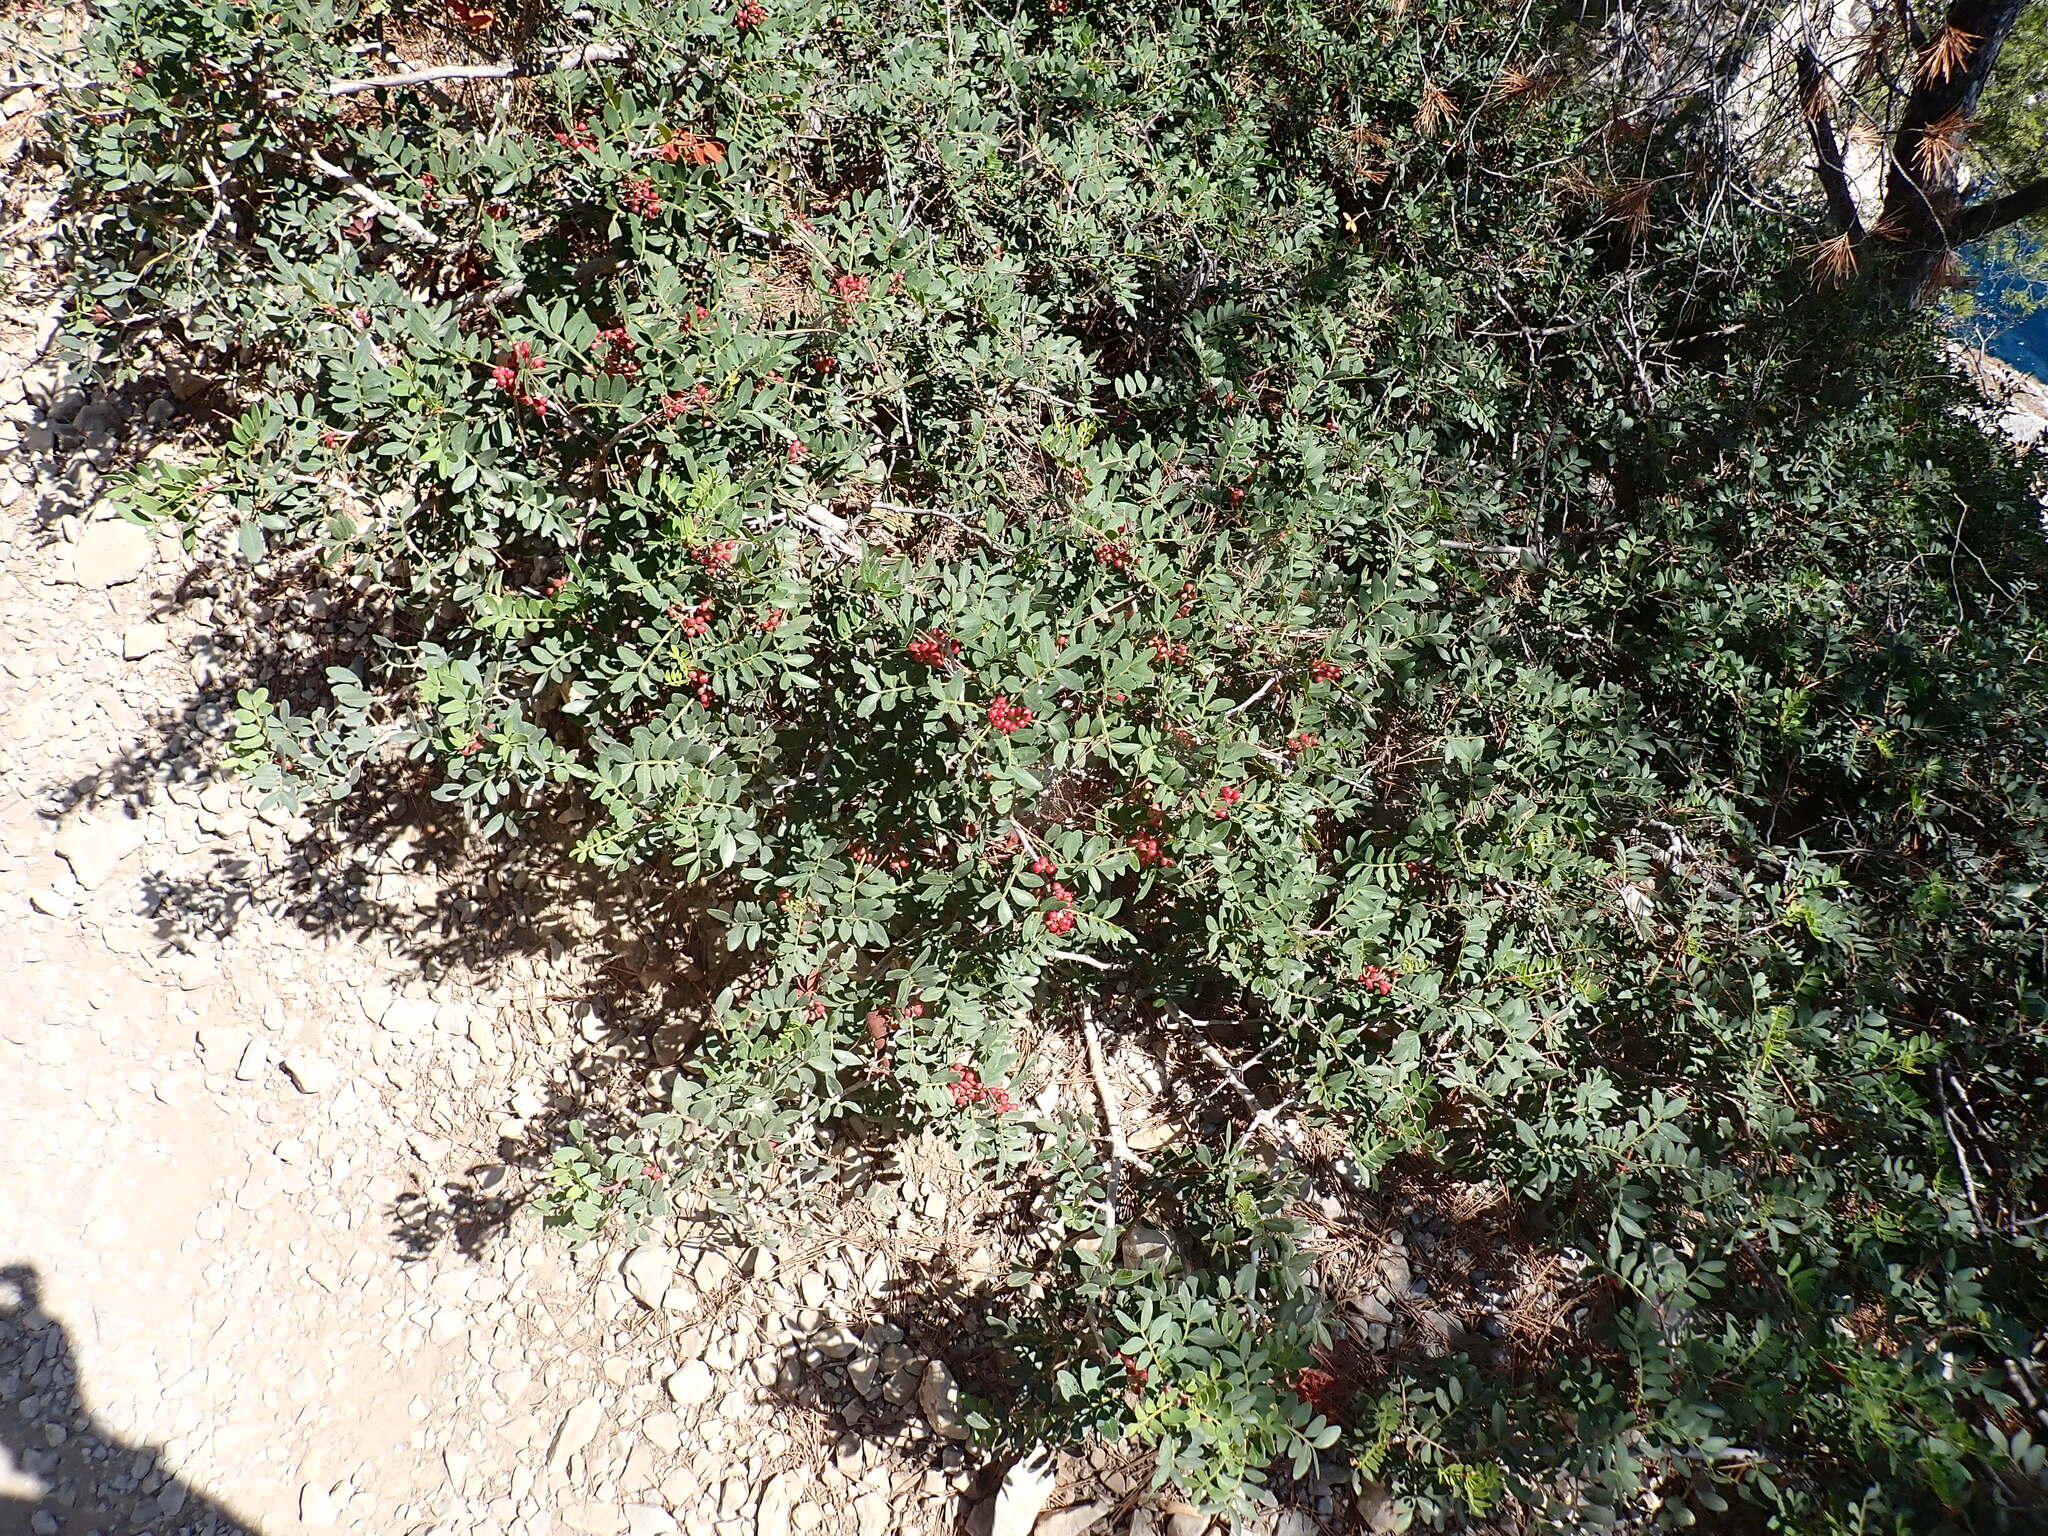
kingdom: Plantae
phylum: Tracheophyta
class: Magnoliopsida
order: Sapindales
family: Anacardiaceae
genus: Pistacia
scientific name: Pistacia lentiscus
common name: Lentisk
